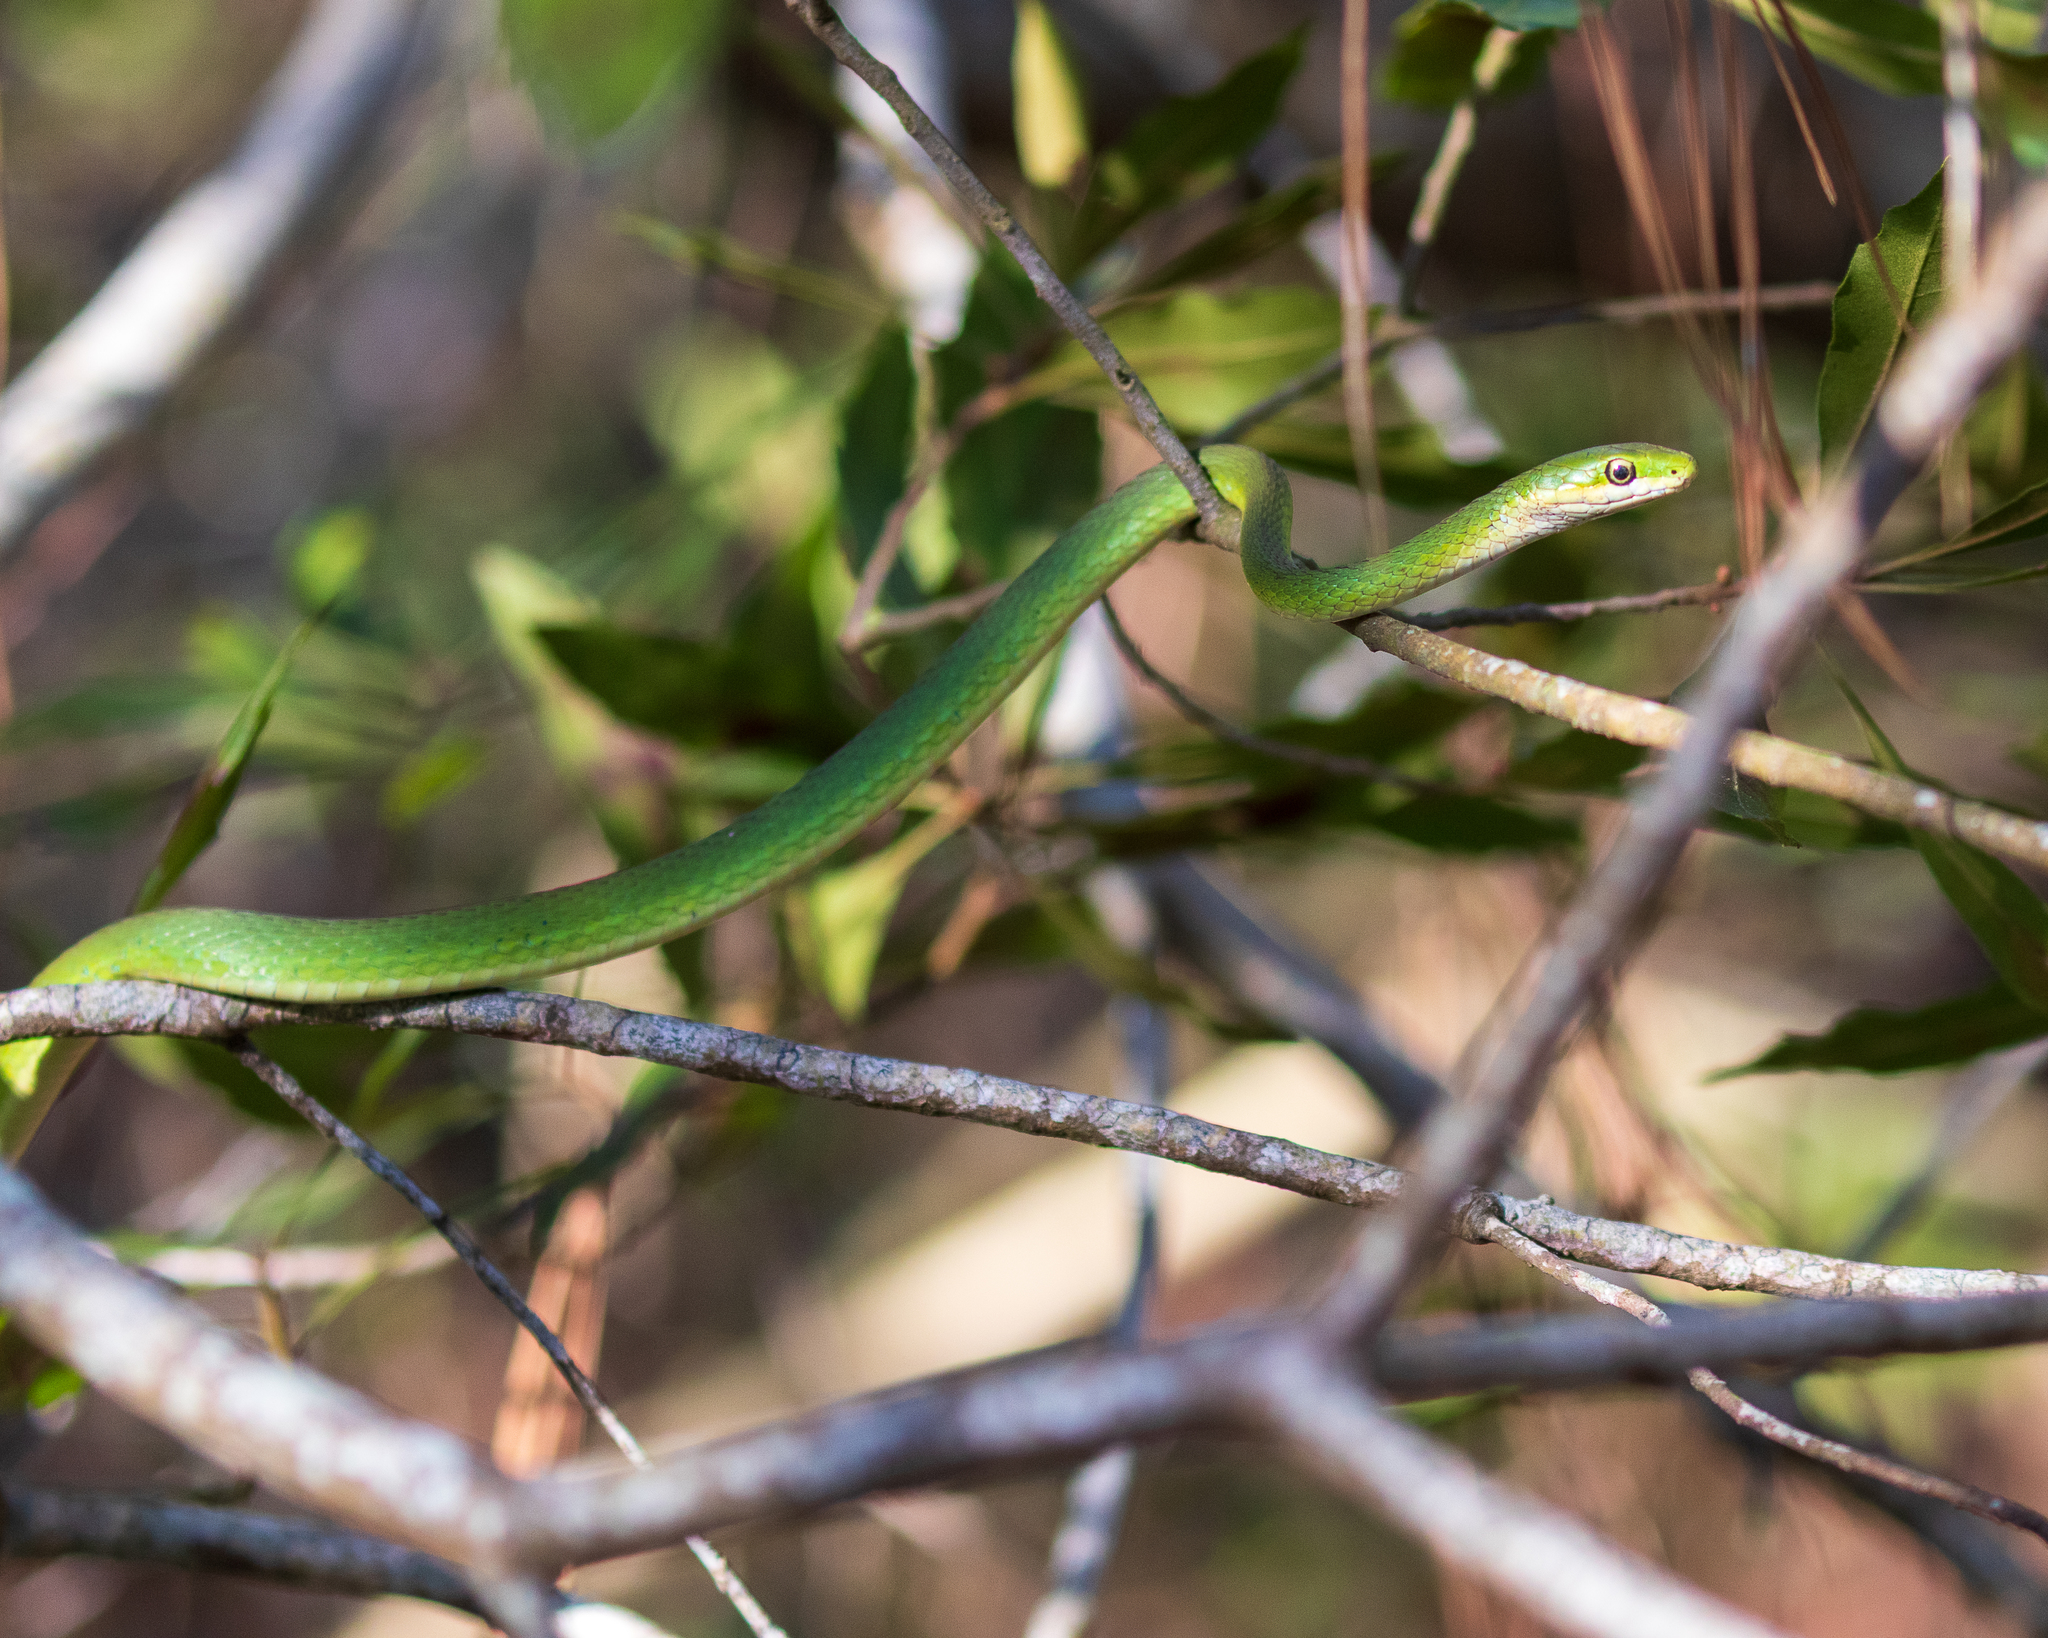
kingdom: Animalia
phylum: Chordata
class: Squamata
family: Colubridae
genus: Opheodrys
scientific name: Opheodrys aestivus
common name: Rough greensnake
